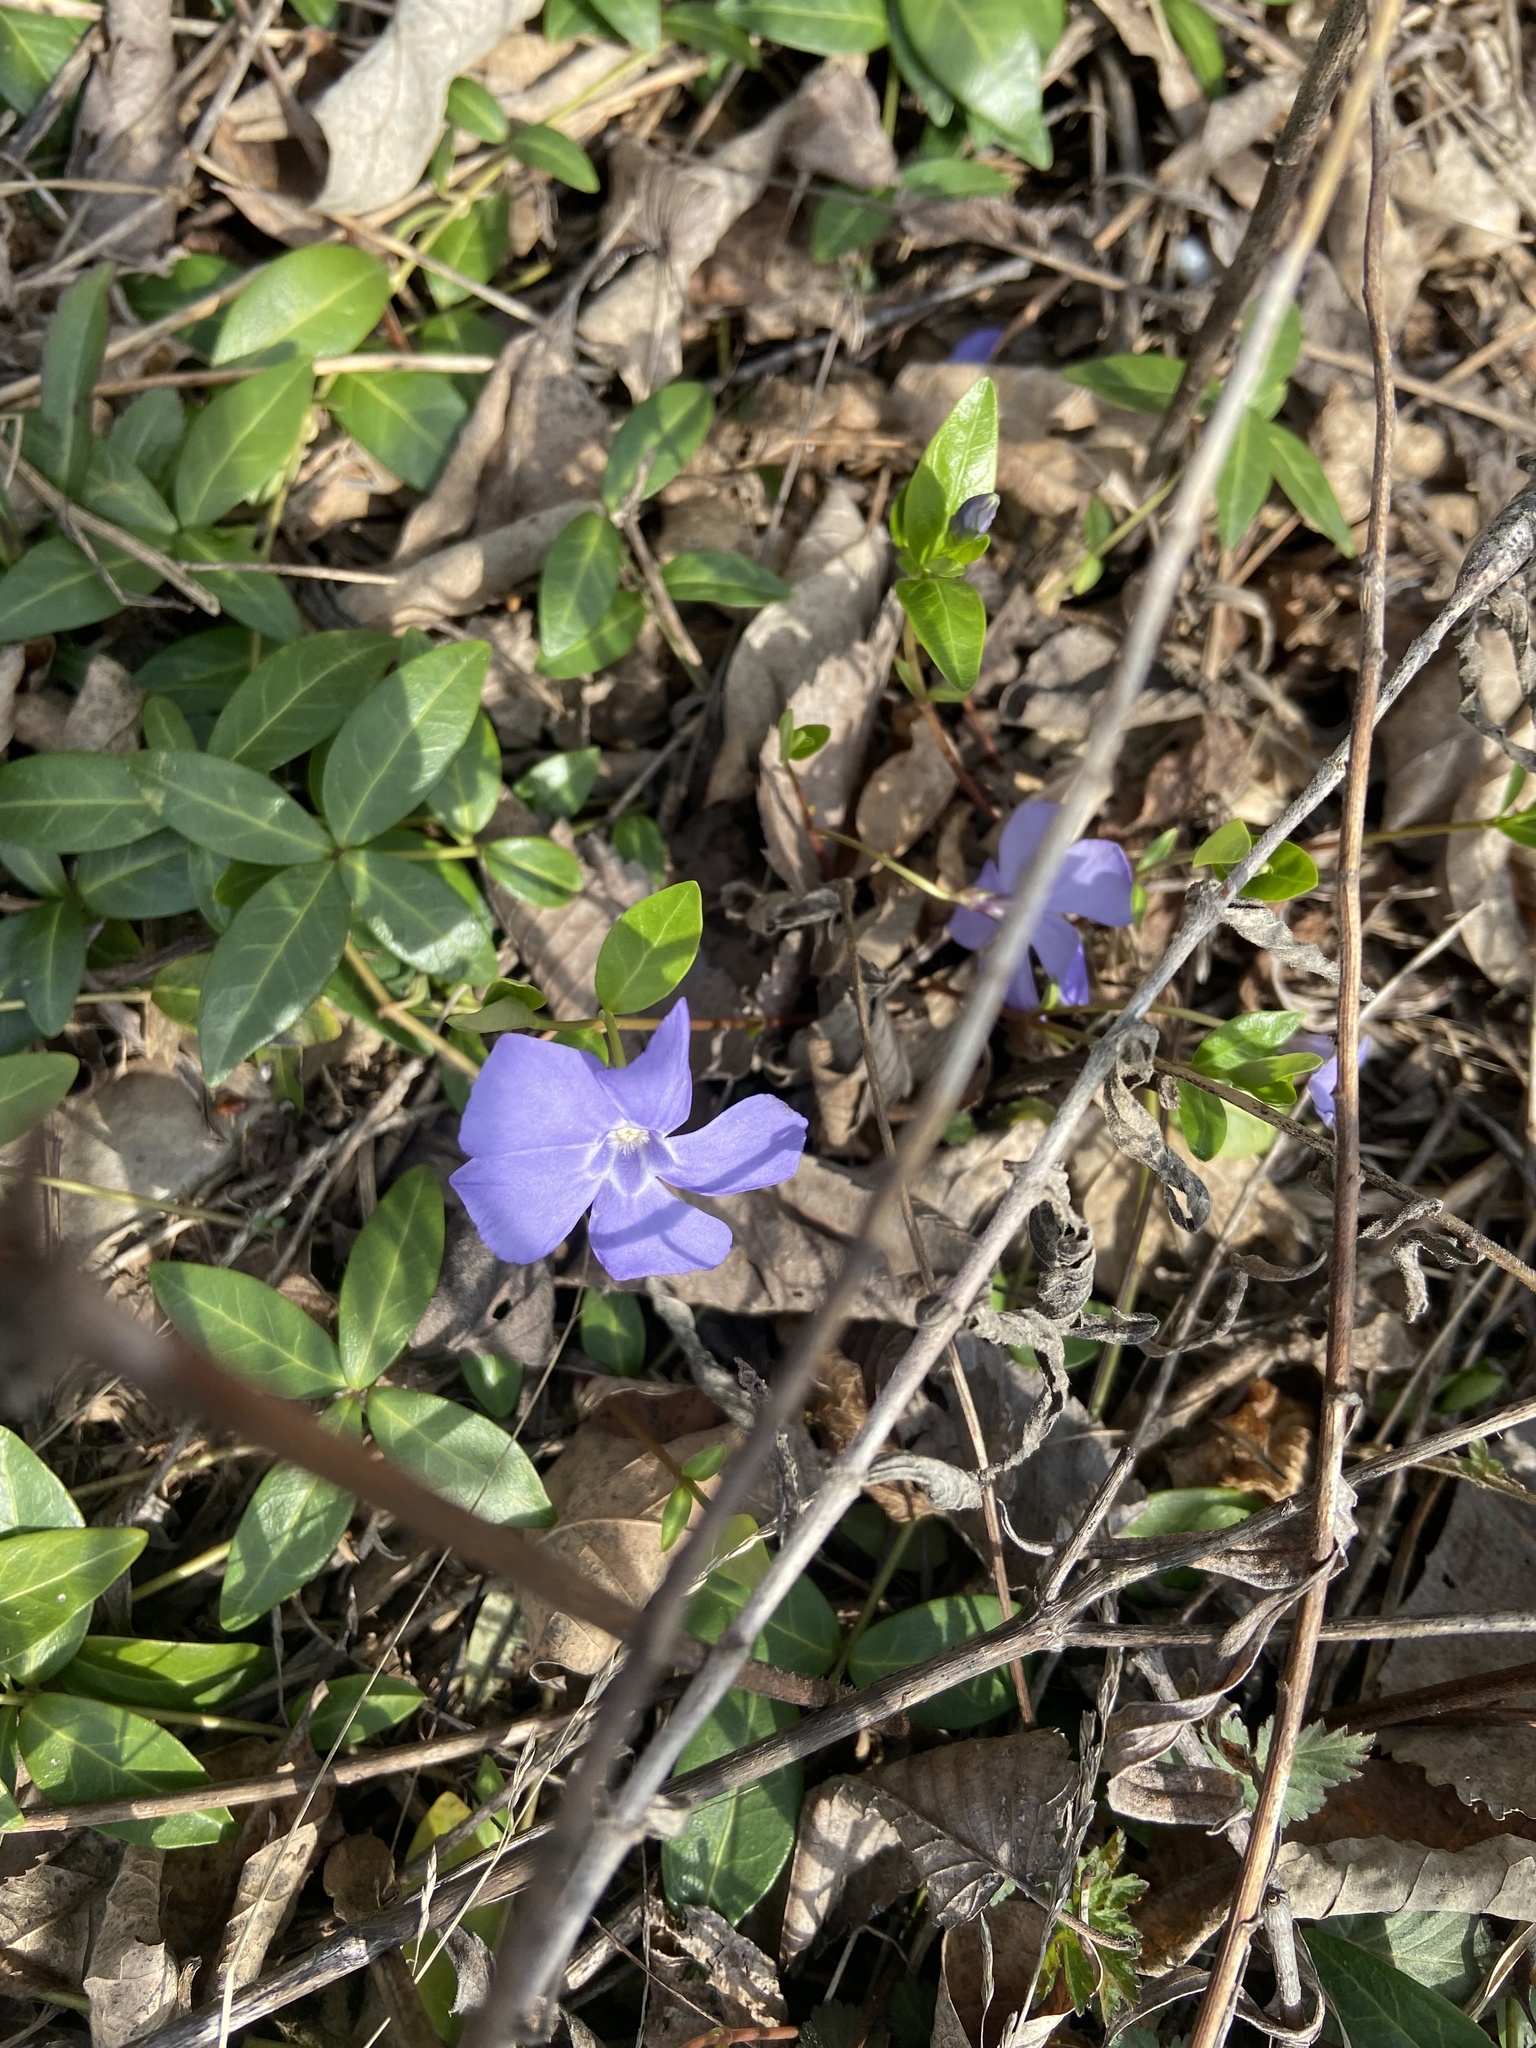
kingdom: Plantae
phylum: Tracheophyta
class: Magnoliopsida
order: Gentianales
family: Apocynaceae
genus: Vinca
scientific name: Vinca minor
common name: Lesser periwinkle
